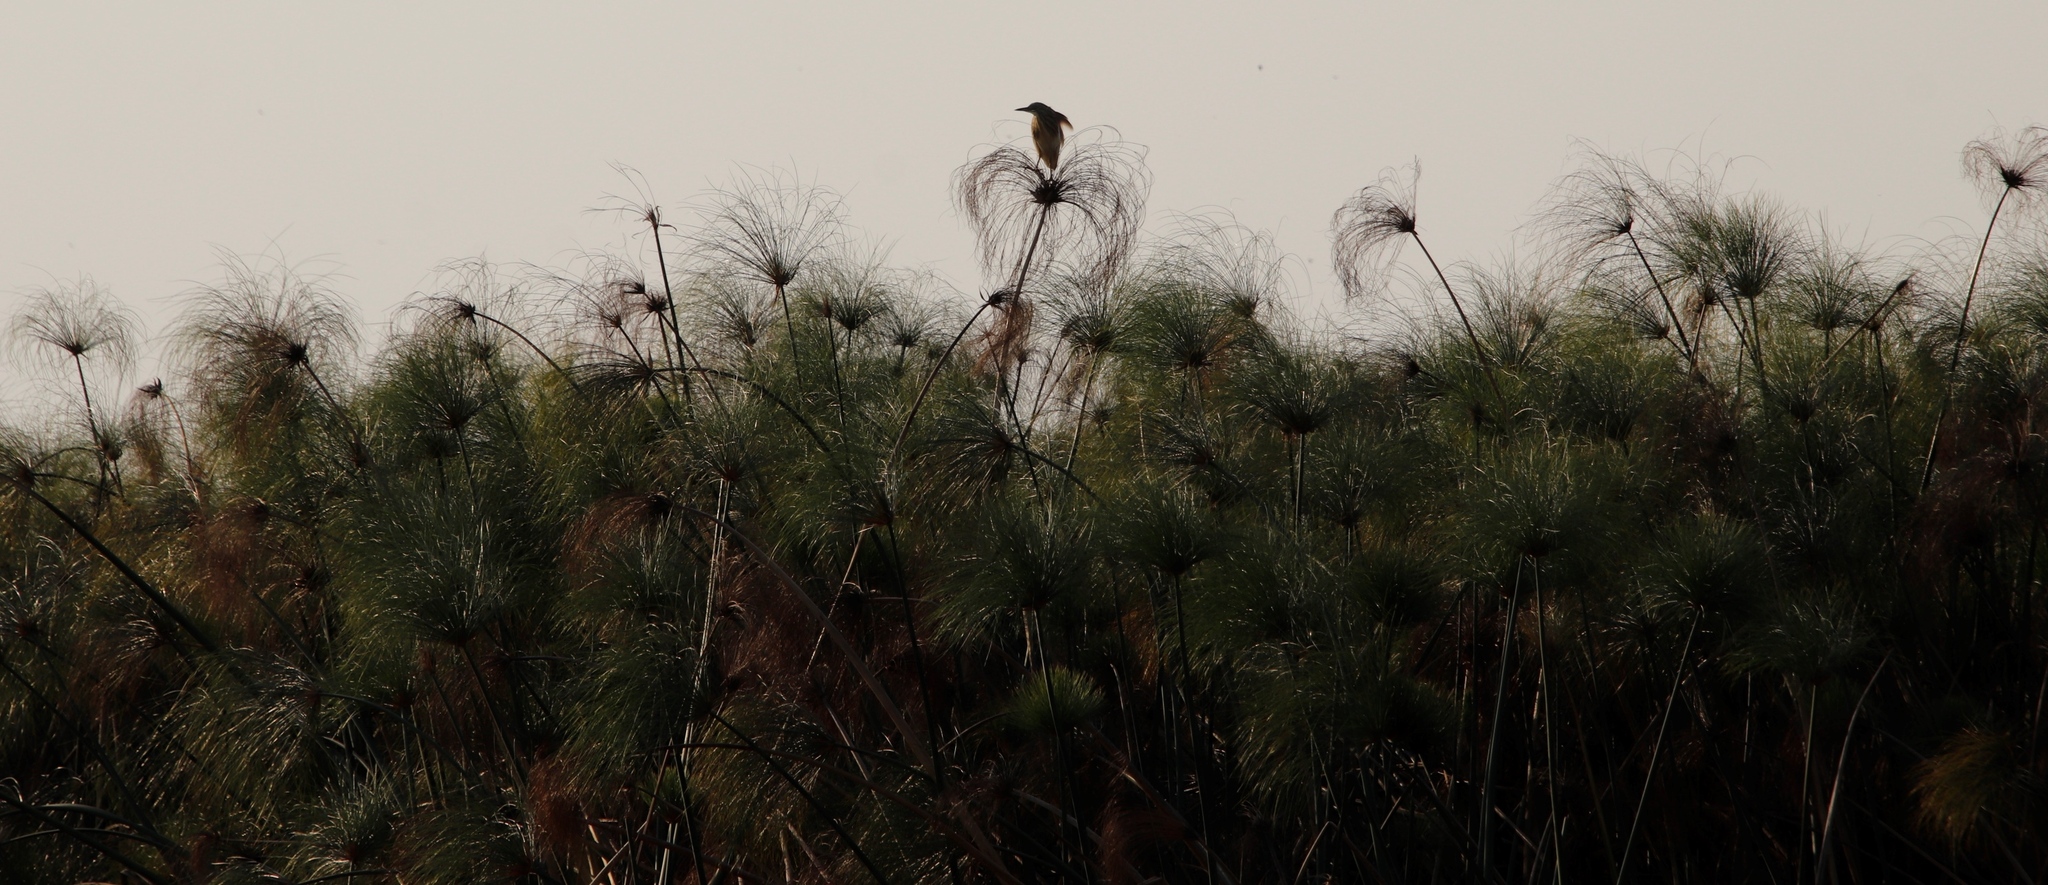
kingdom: Animalia
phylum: Chordata
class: Aves
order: Pelecaniformes
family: Ardeidae
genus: Ardeola
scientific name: Ardeola ralloides
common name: Squacco heron
